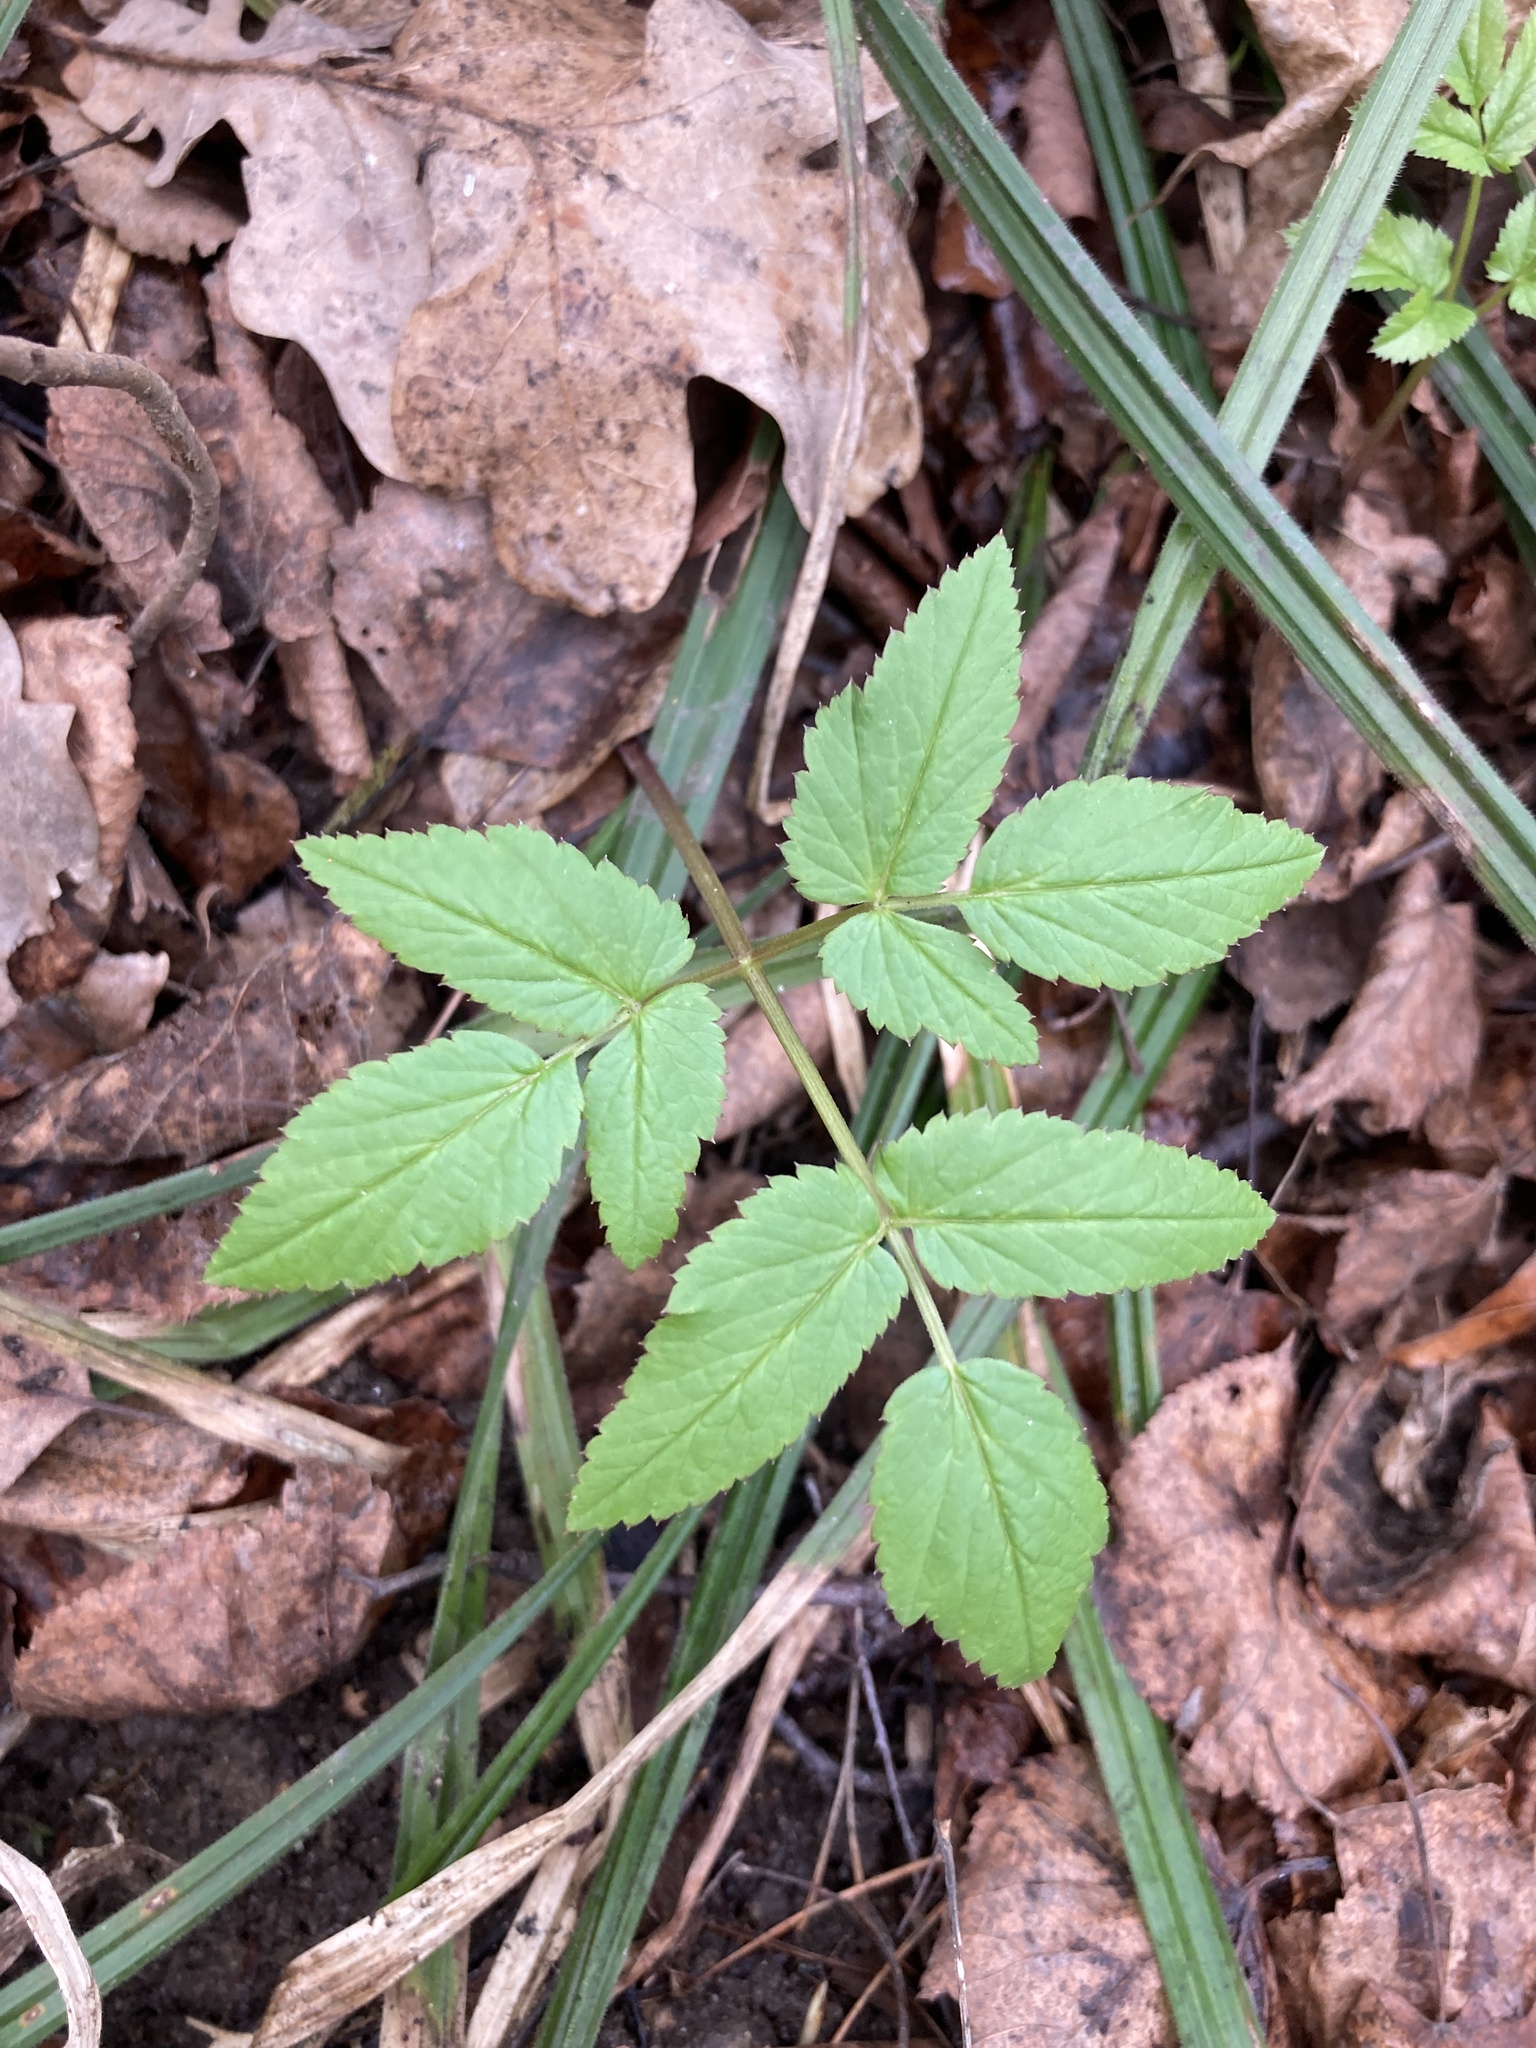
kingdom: Plantae
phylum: Tracheophyta
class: Magnoliopsida
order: Apiales
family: Apiaceae
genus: Aegopodium
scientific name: Aegopodium podagraria
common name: Ground-elder
